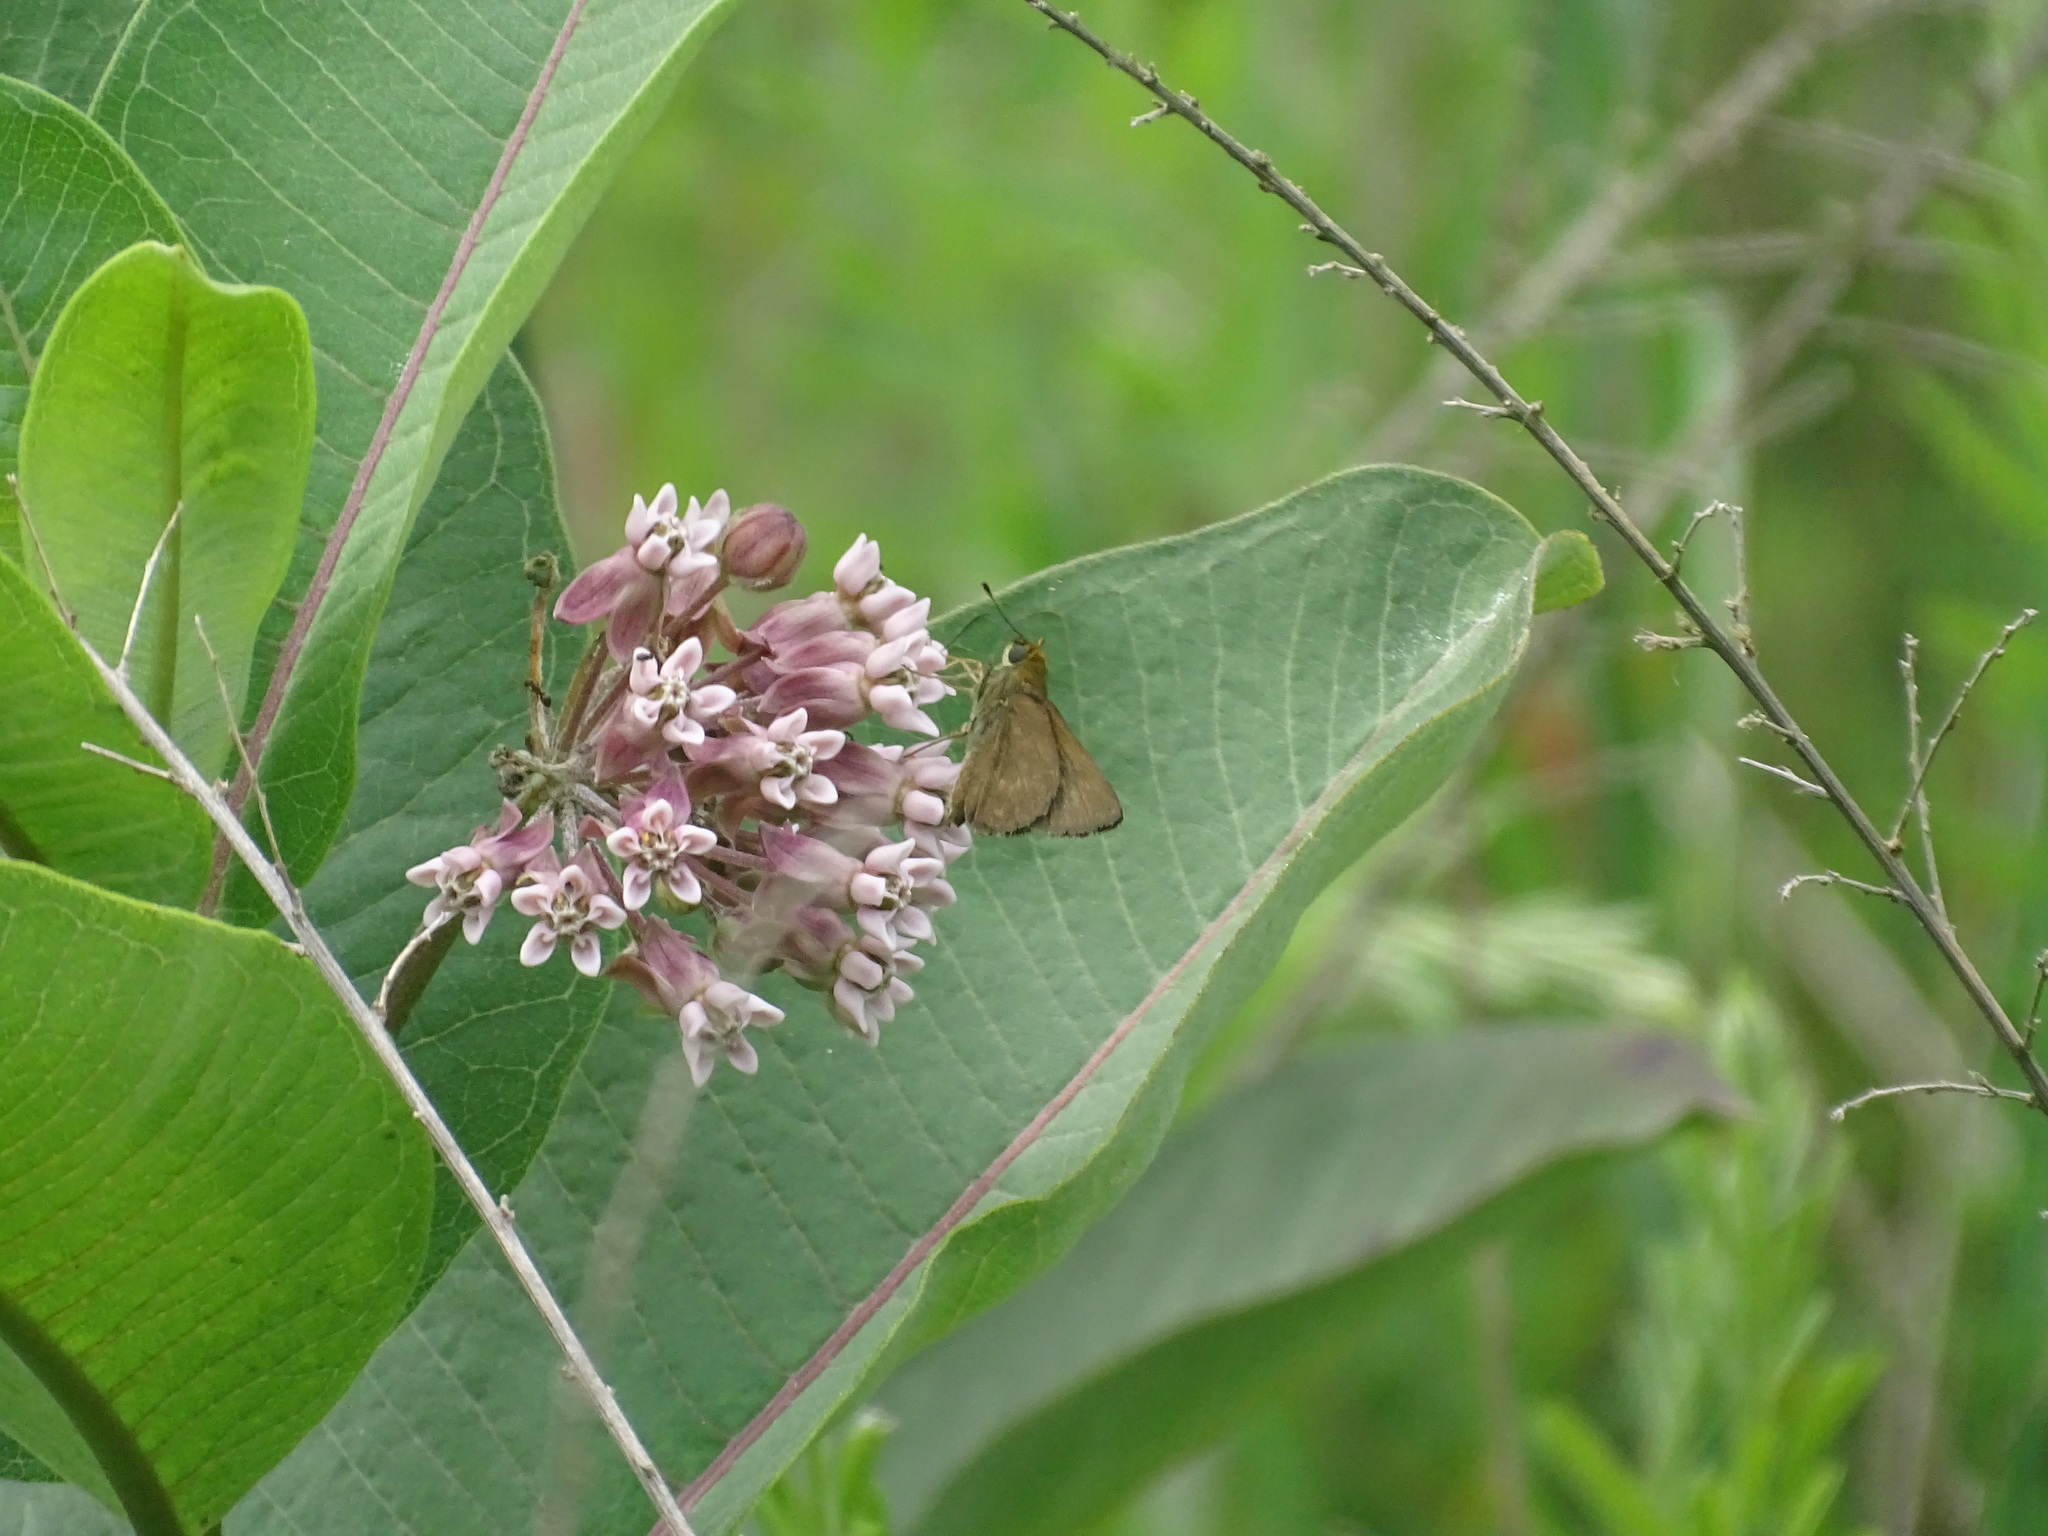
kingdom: Animalia
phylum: Arthropoda
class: Insecta
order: Lepidoptera
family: Hesperiidae
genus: Euphyes
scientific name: Euphyes vestris
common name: Dun skipper
